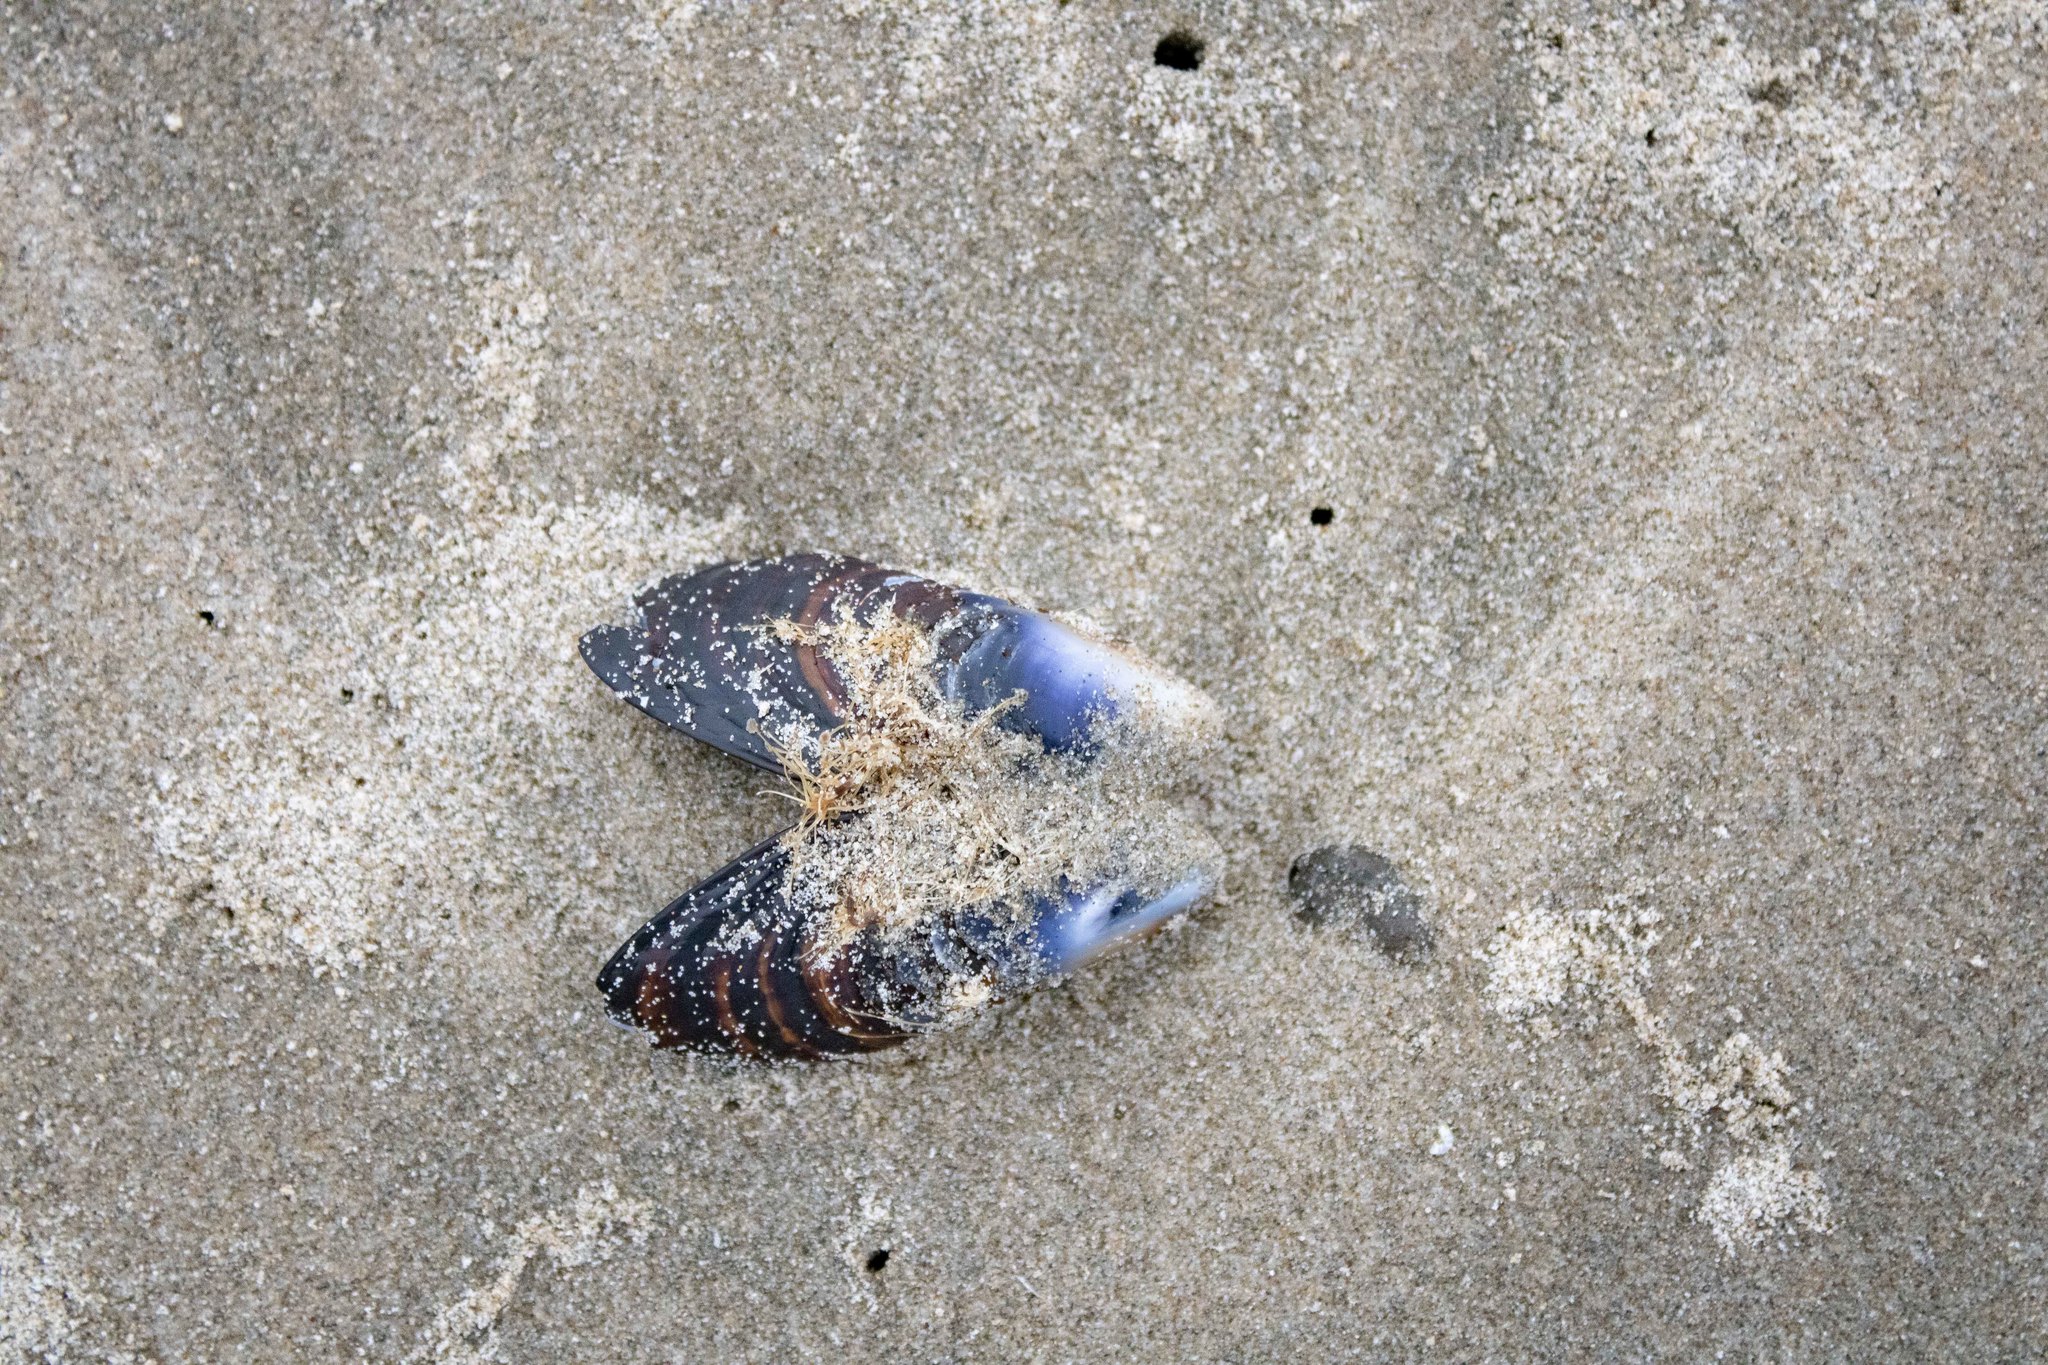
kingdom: Animalia
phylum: Mollusca
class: Bivalvia
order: Mytilida
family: Mytilidae
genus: Mytilus
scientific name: Mytilus californianus
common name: California mussel
